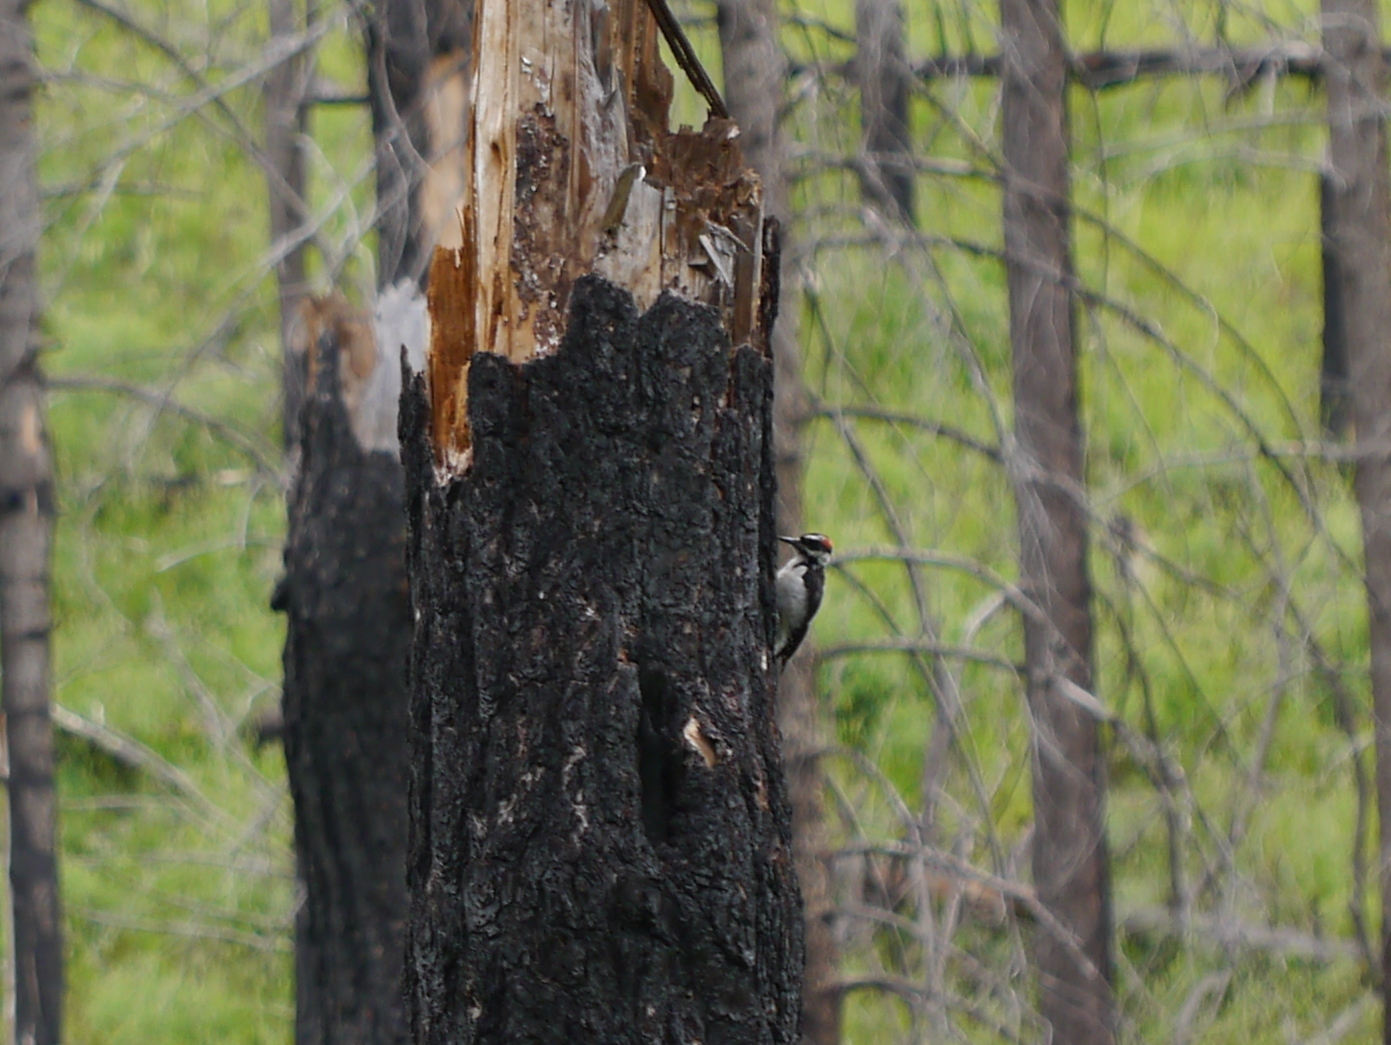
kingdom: Animalia
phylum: Chordata
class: Aves
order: Piciformes
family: Picidae
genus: Leuconotopicus
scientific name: Leuconotopicus villosus
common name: Hairy woodpecker
